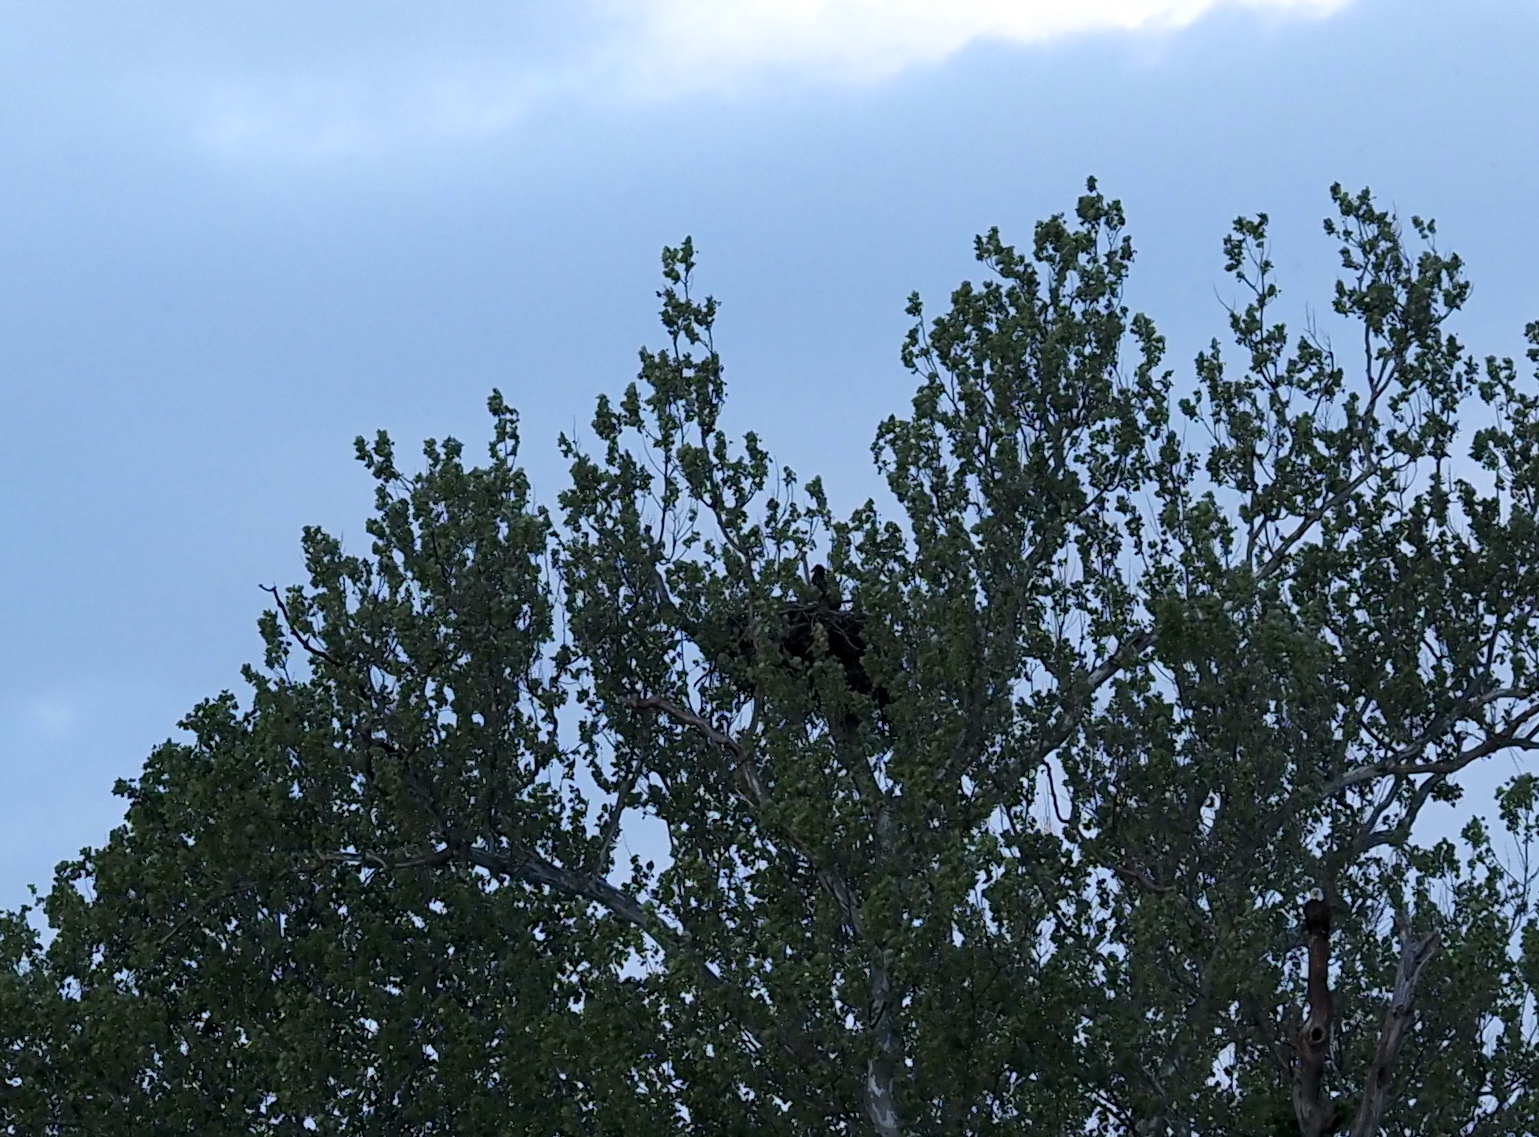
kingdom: Animalia
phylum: Chordata
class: Aves
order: Accipitriformes
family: Accipitridae
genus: Haliaeetus
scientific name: Haliaeetus leucocephalus
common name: Bald eagle
